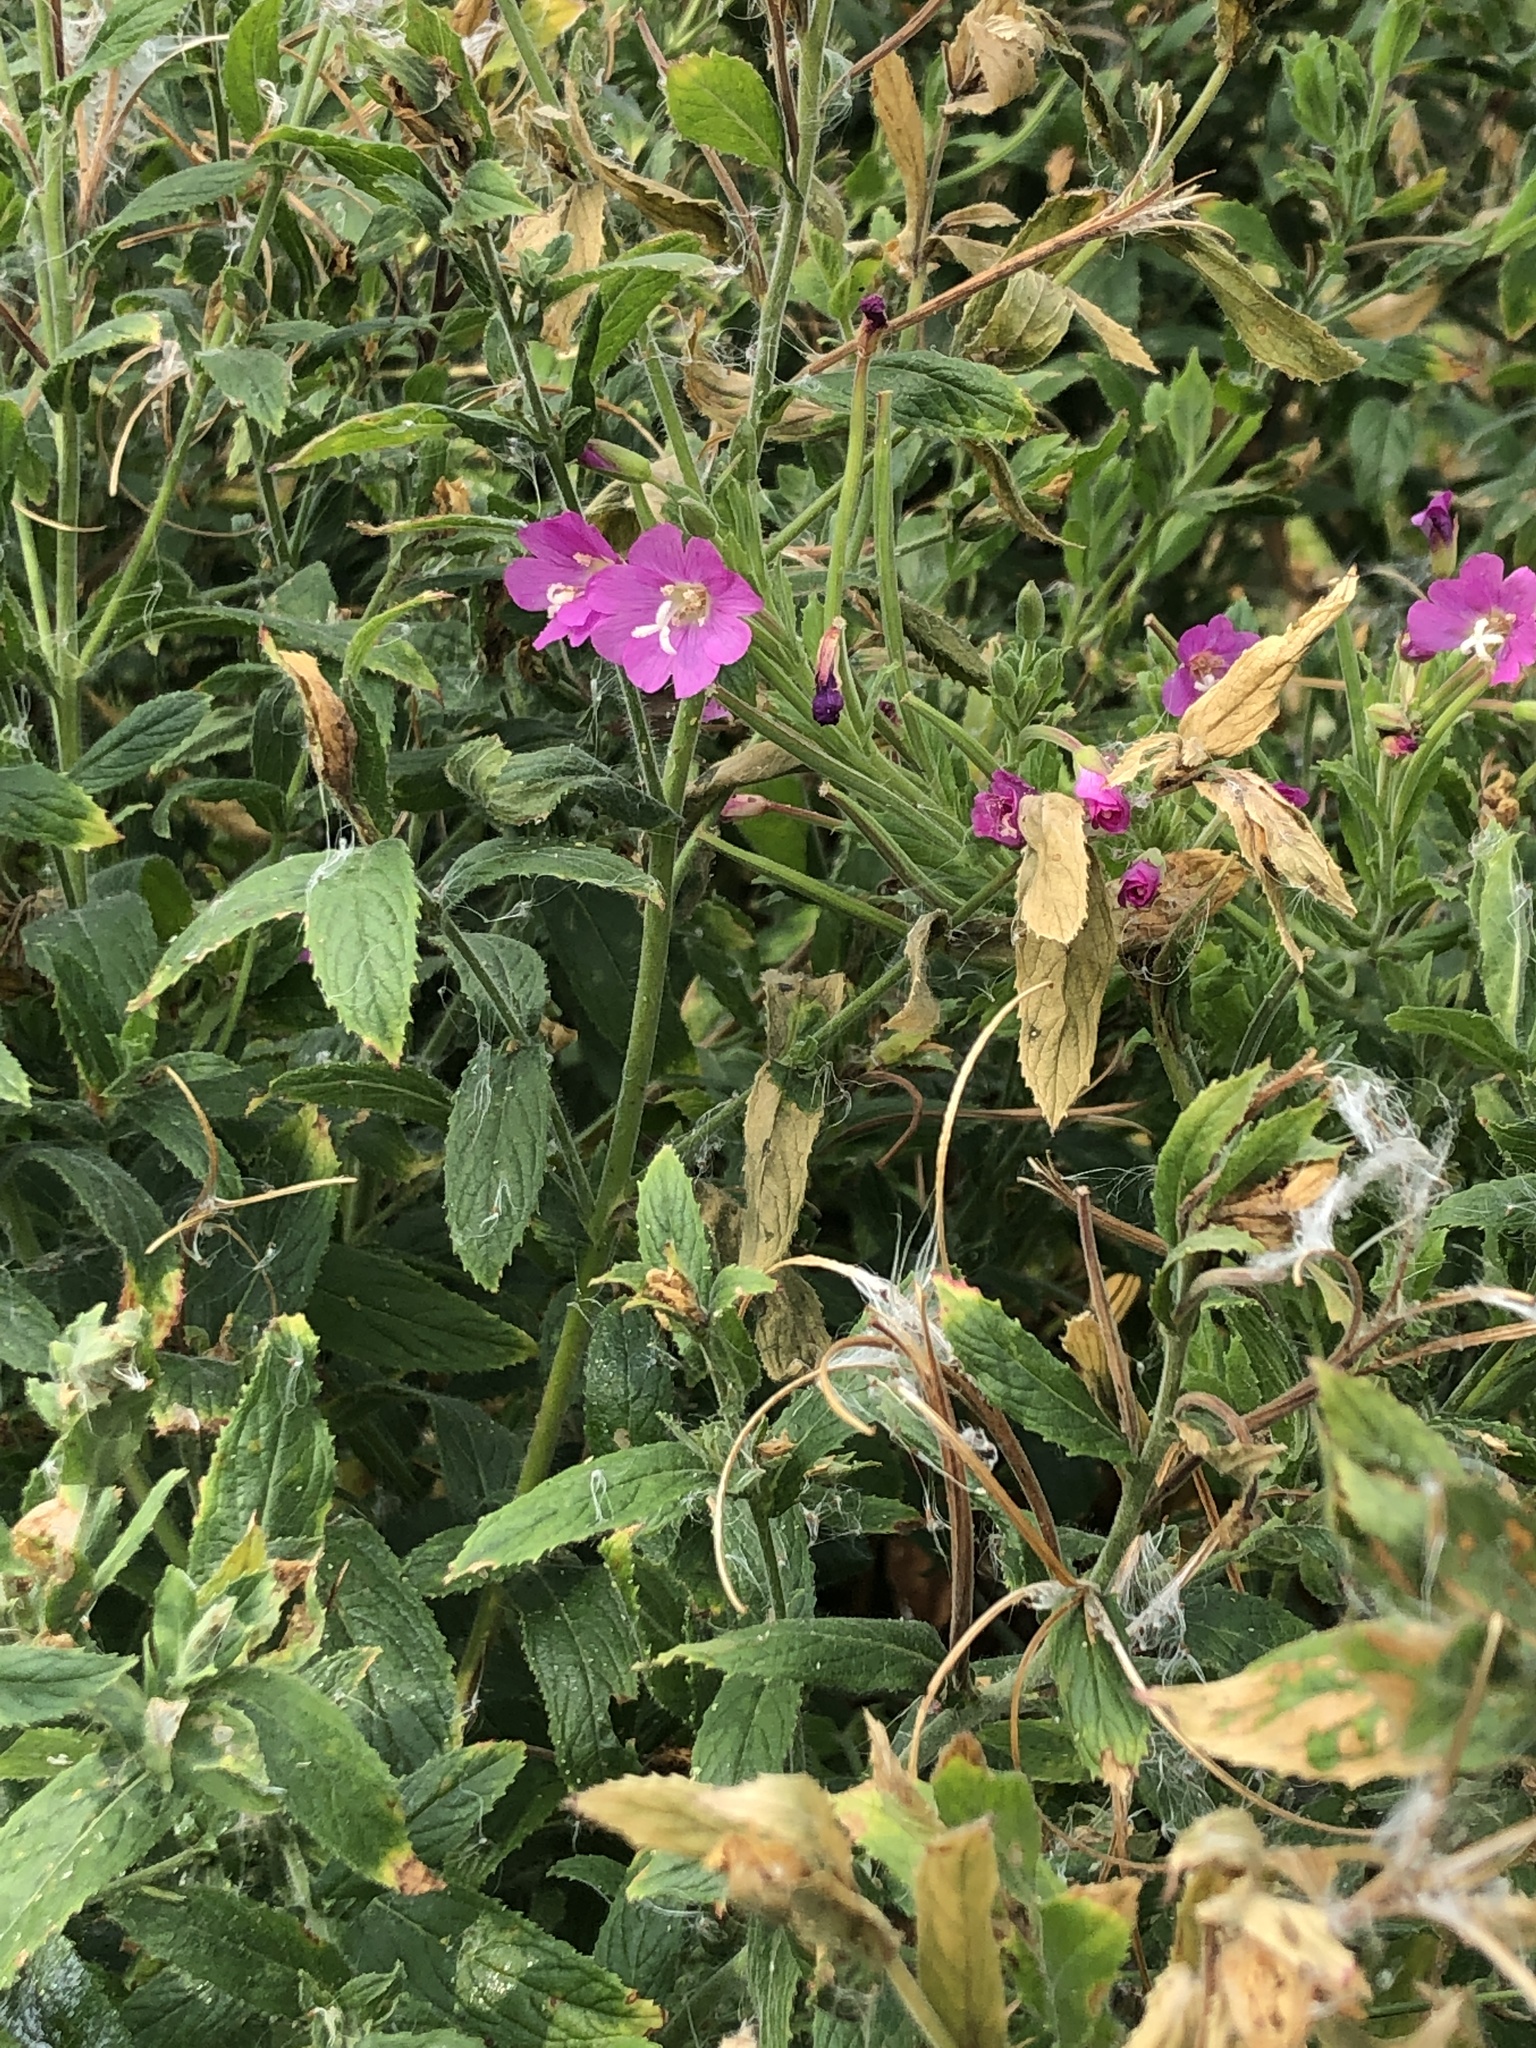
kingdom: Plantae
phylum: Tracheophyta
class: Magnoliopsida
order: Myrtales
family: Onagraceae
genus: Epilobium
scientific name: Epilobium hirsutum
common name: Great willowherb
